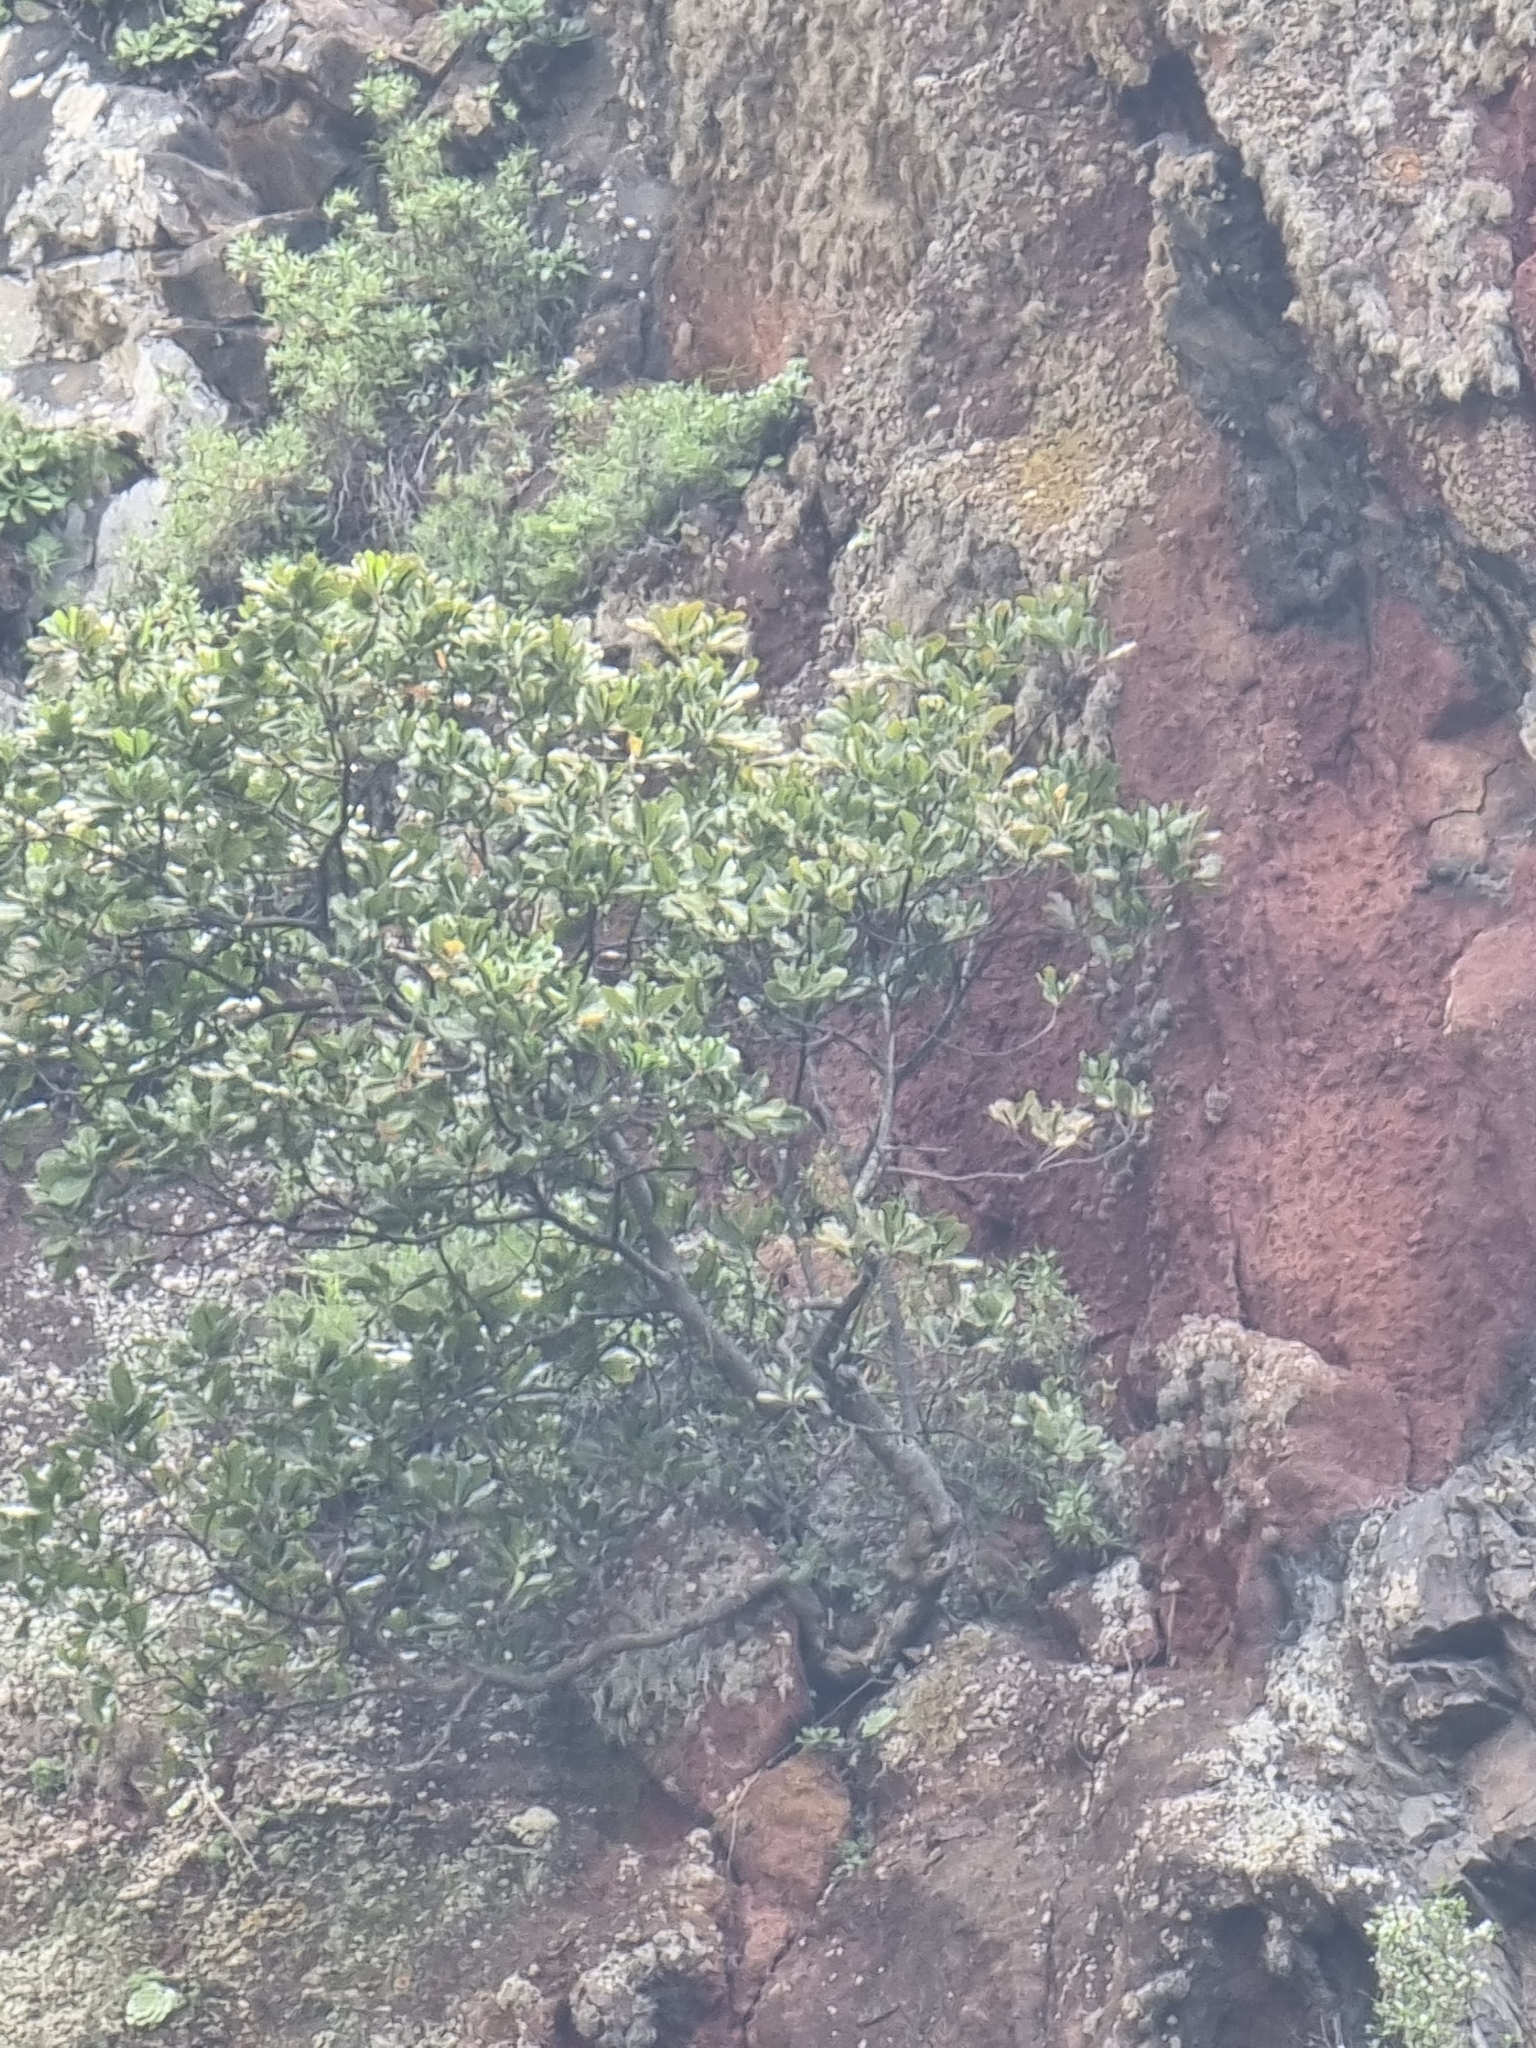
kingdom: Plantae
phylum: Tracheophyta
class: Magnoliopsida
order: Ericales
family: Sapotaceae
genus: Sideroxylon
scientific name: Sideroxylon mirmulans
